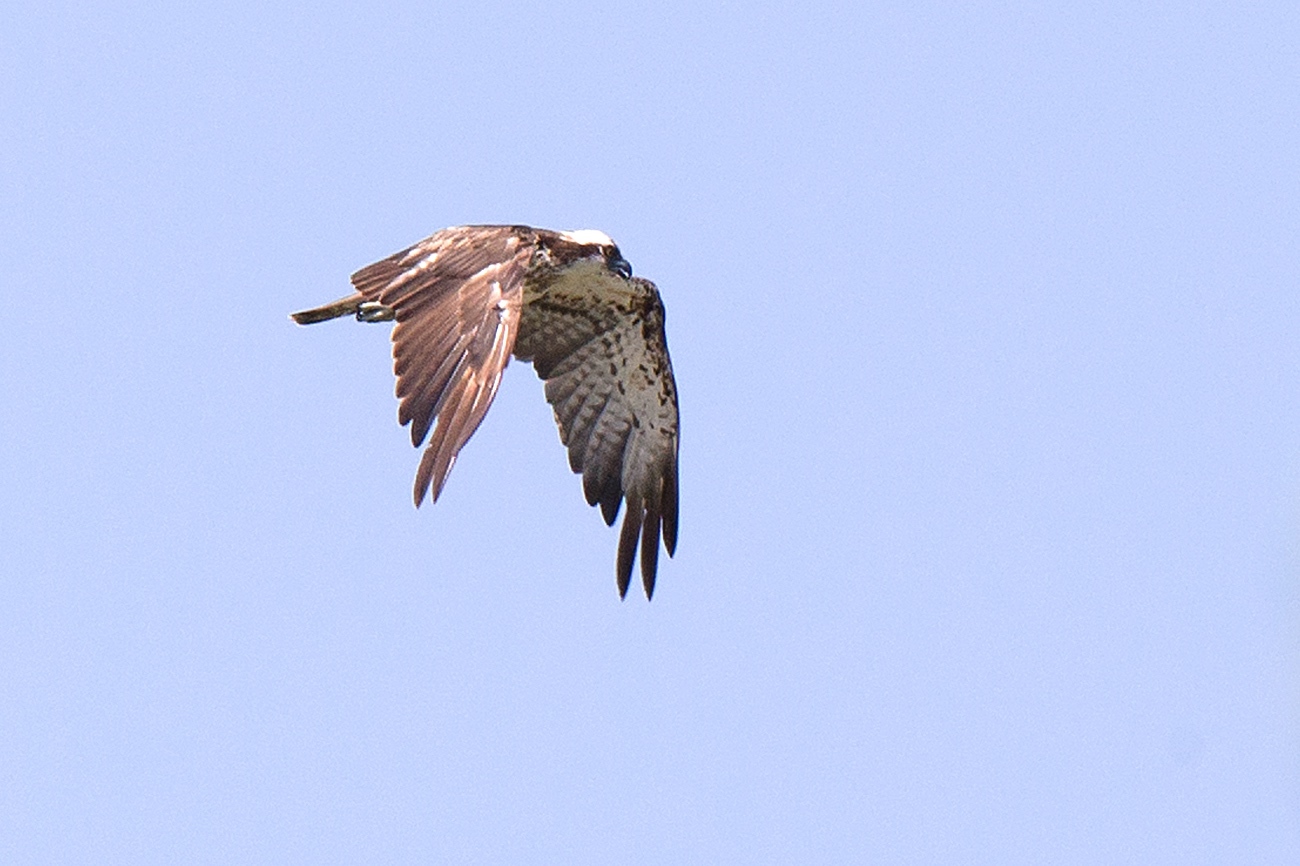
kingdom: Animalia
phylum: Chordata
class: Aves
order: Accipitriformes
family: Pandionidae
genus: Pandion
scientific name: Pandion haliaetus
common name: Osprey
